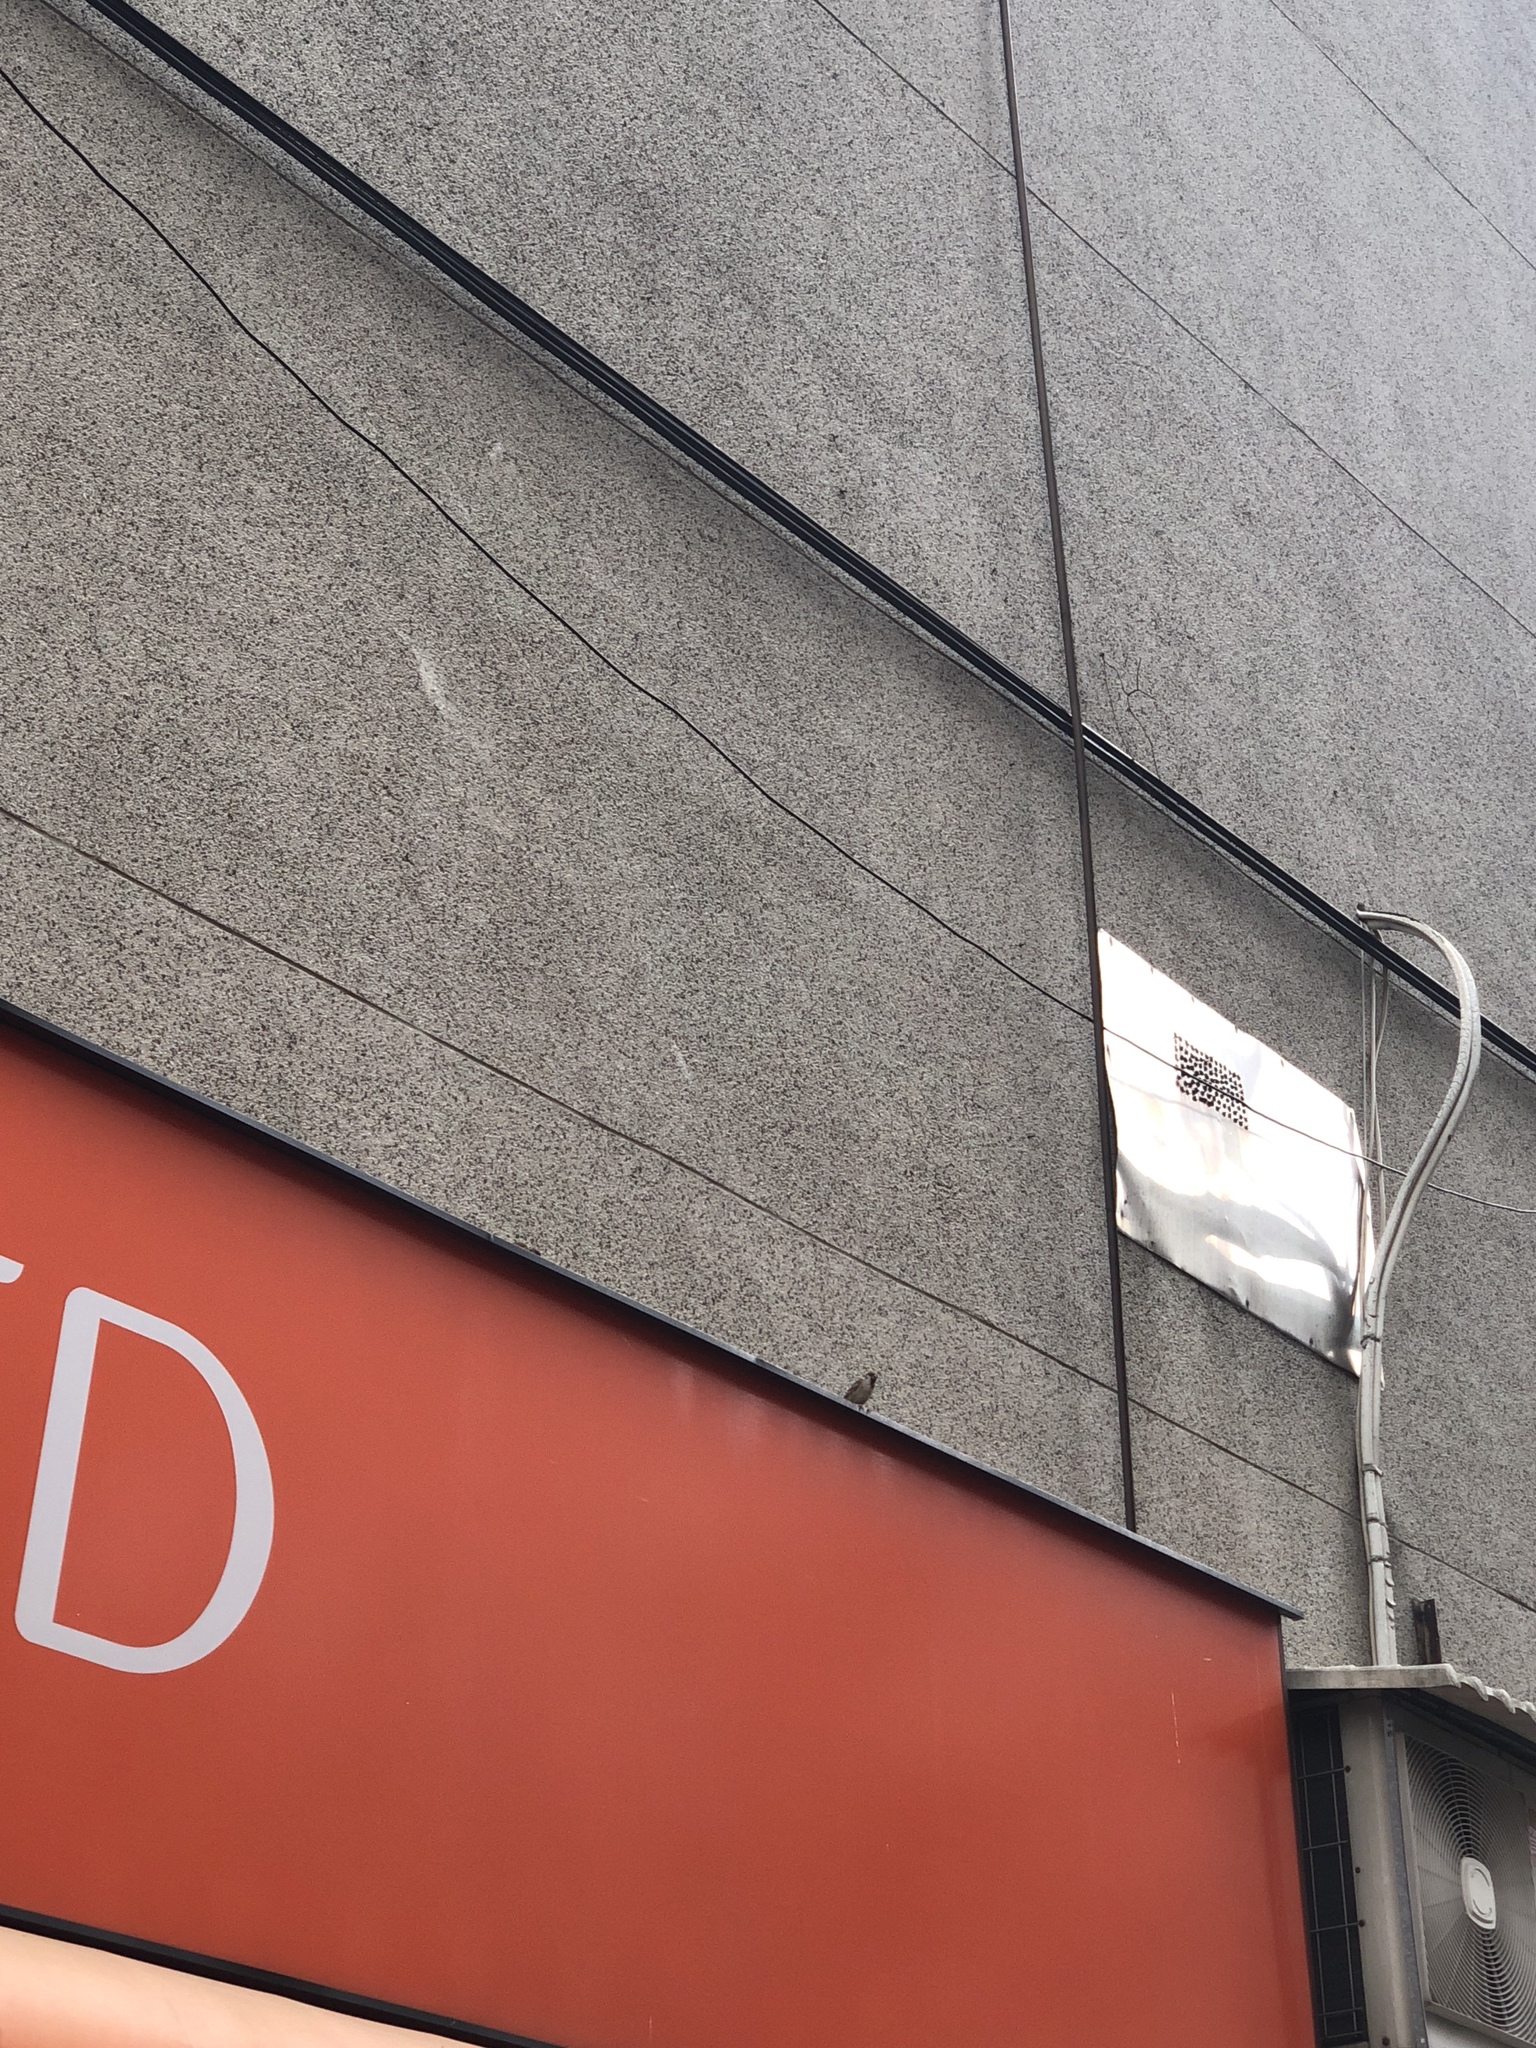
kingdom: Animalia
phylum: Chordata
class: Aves
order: Passeriformes
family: Passeridae
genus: Passer
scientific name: Passer montanus
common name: Eurasian tree sparrow
